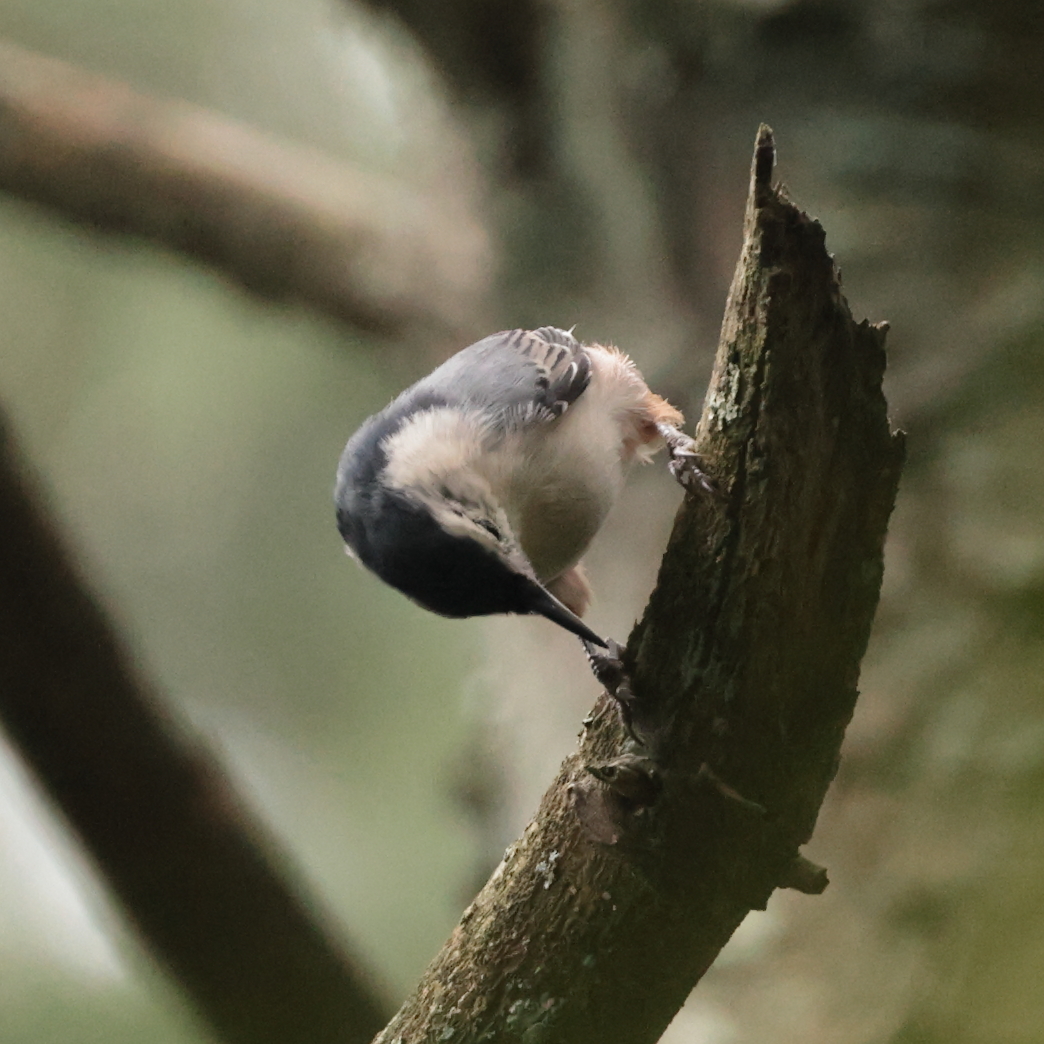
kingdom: Animalia
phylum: Chordata
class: Aves
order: Passeriformes
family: Sittidae
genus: Sitta
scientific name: Sitta carolinensis
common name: White-breasted nuthatch
